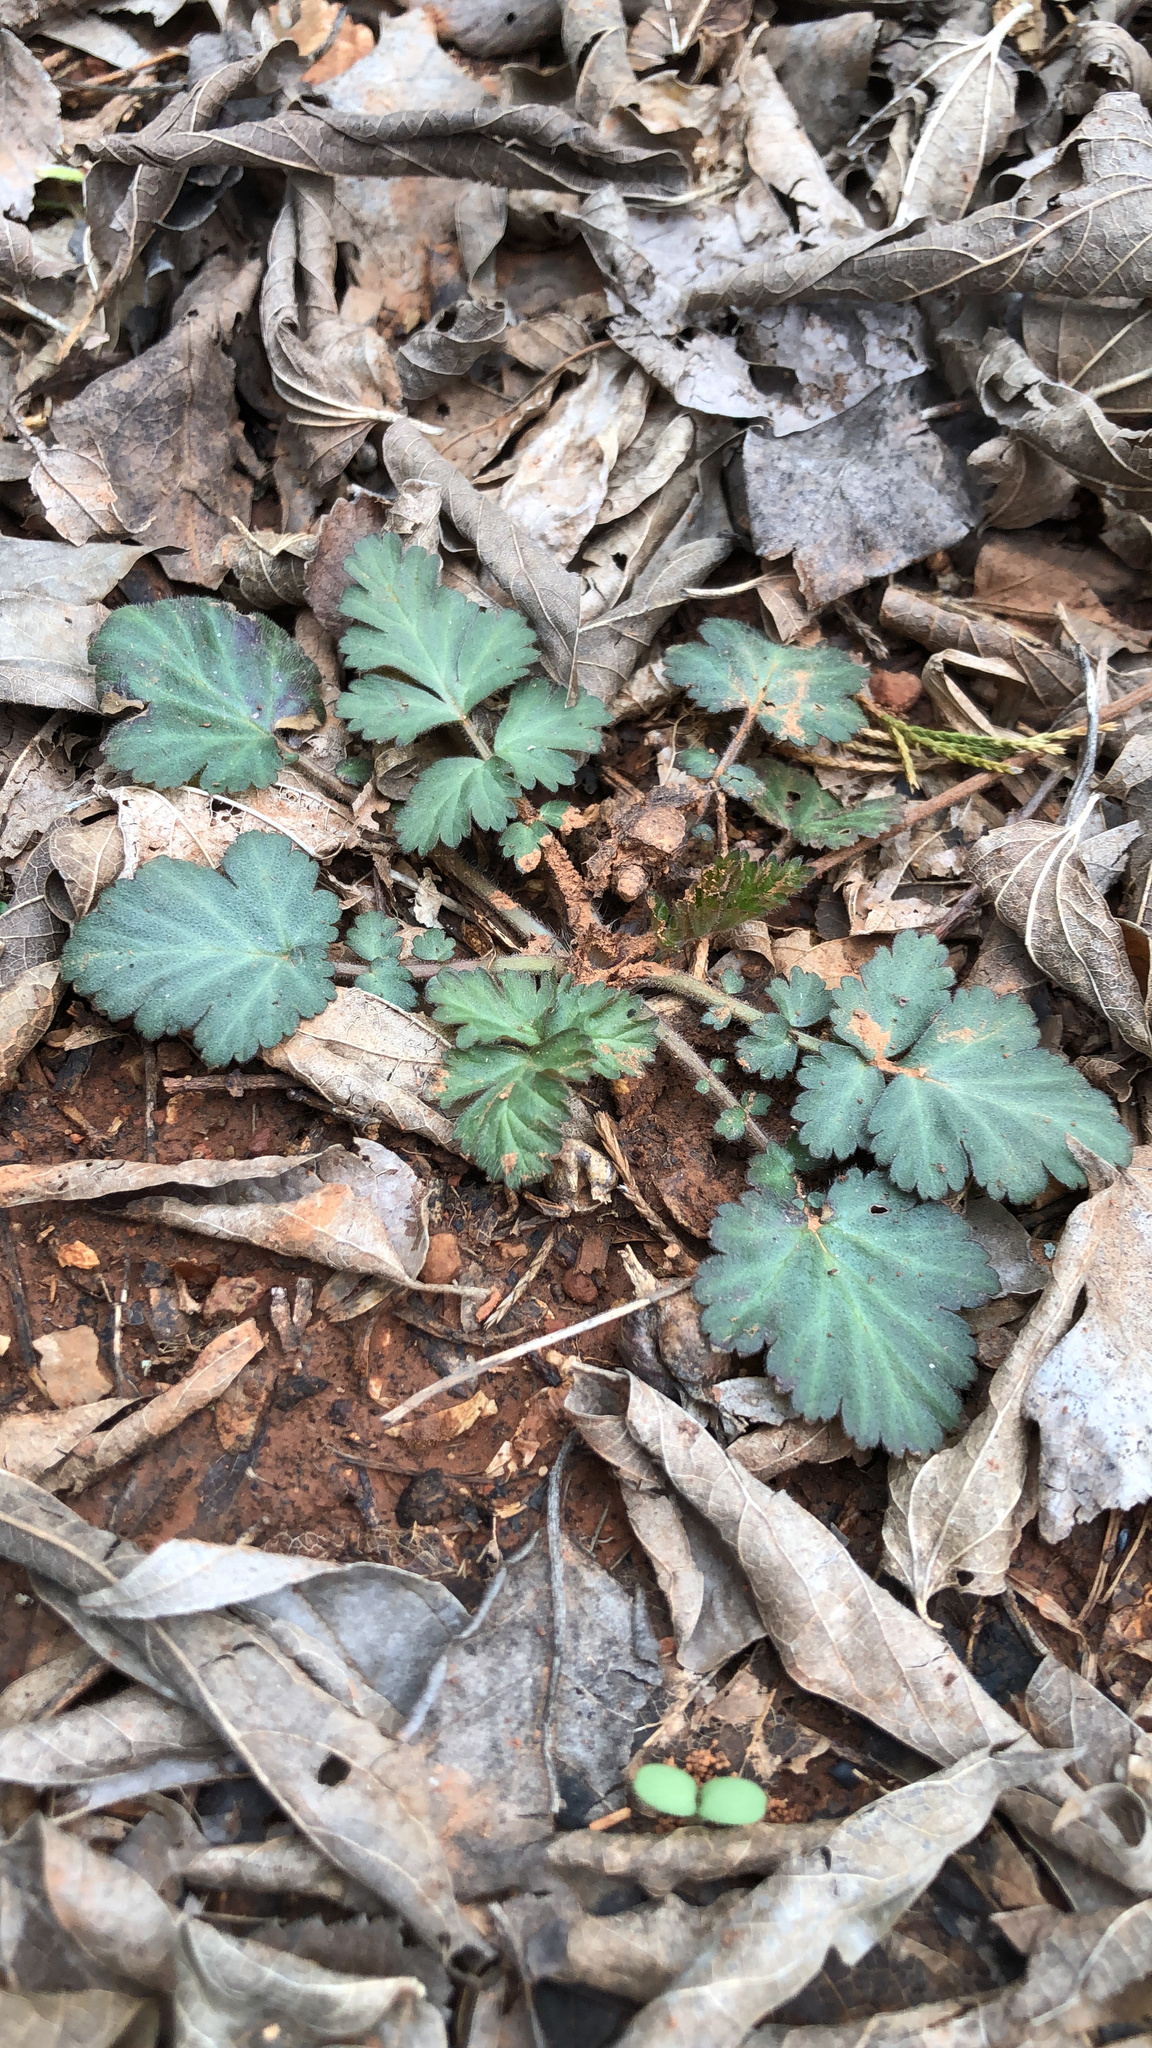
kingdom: Plantae
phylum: Tracheophyta
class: Magnoliopsida
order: Rosales
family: Rosaceae
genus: Geum
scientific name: Geum canadense
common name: White avens
